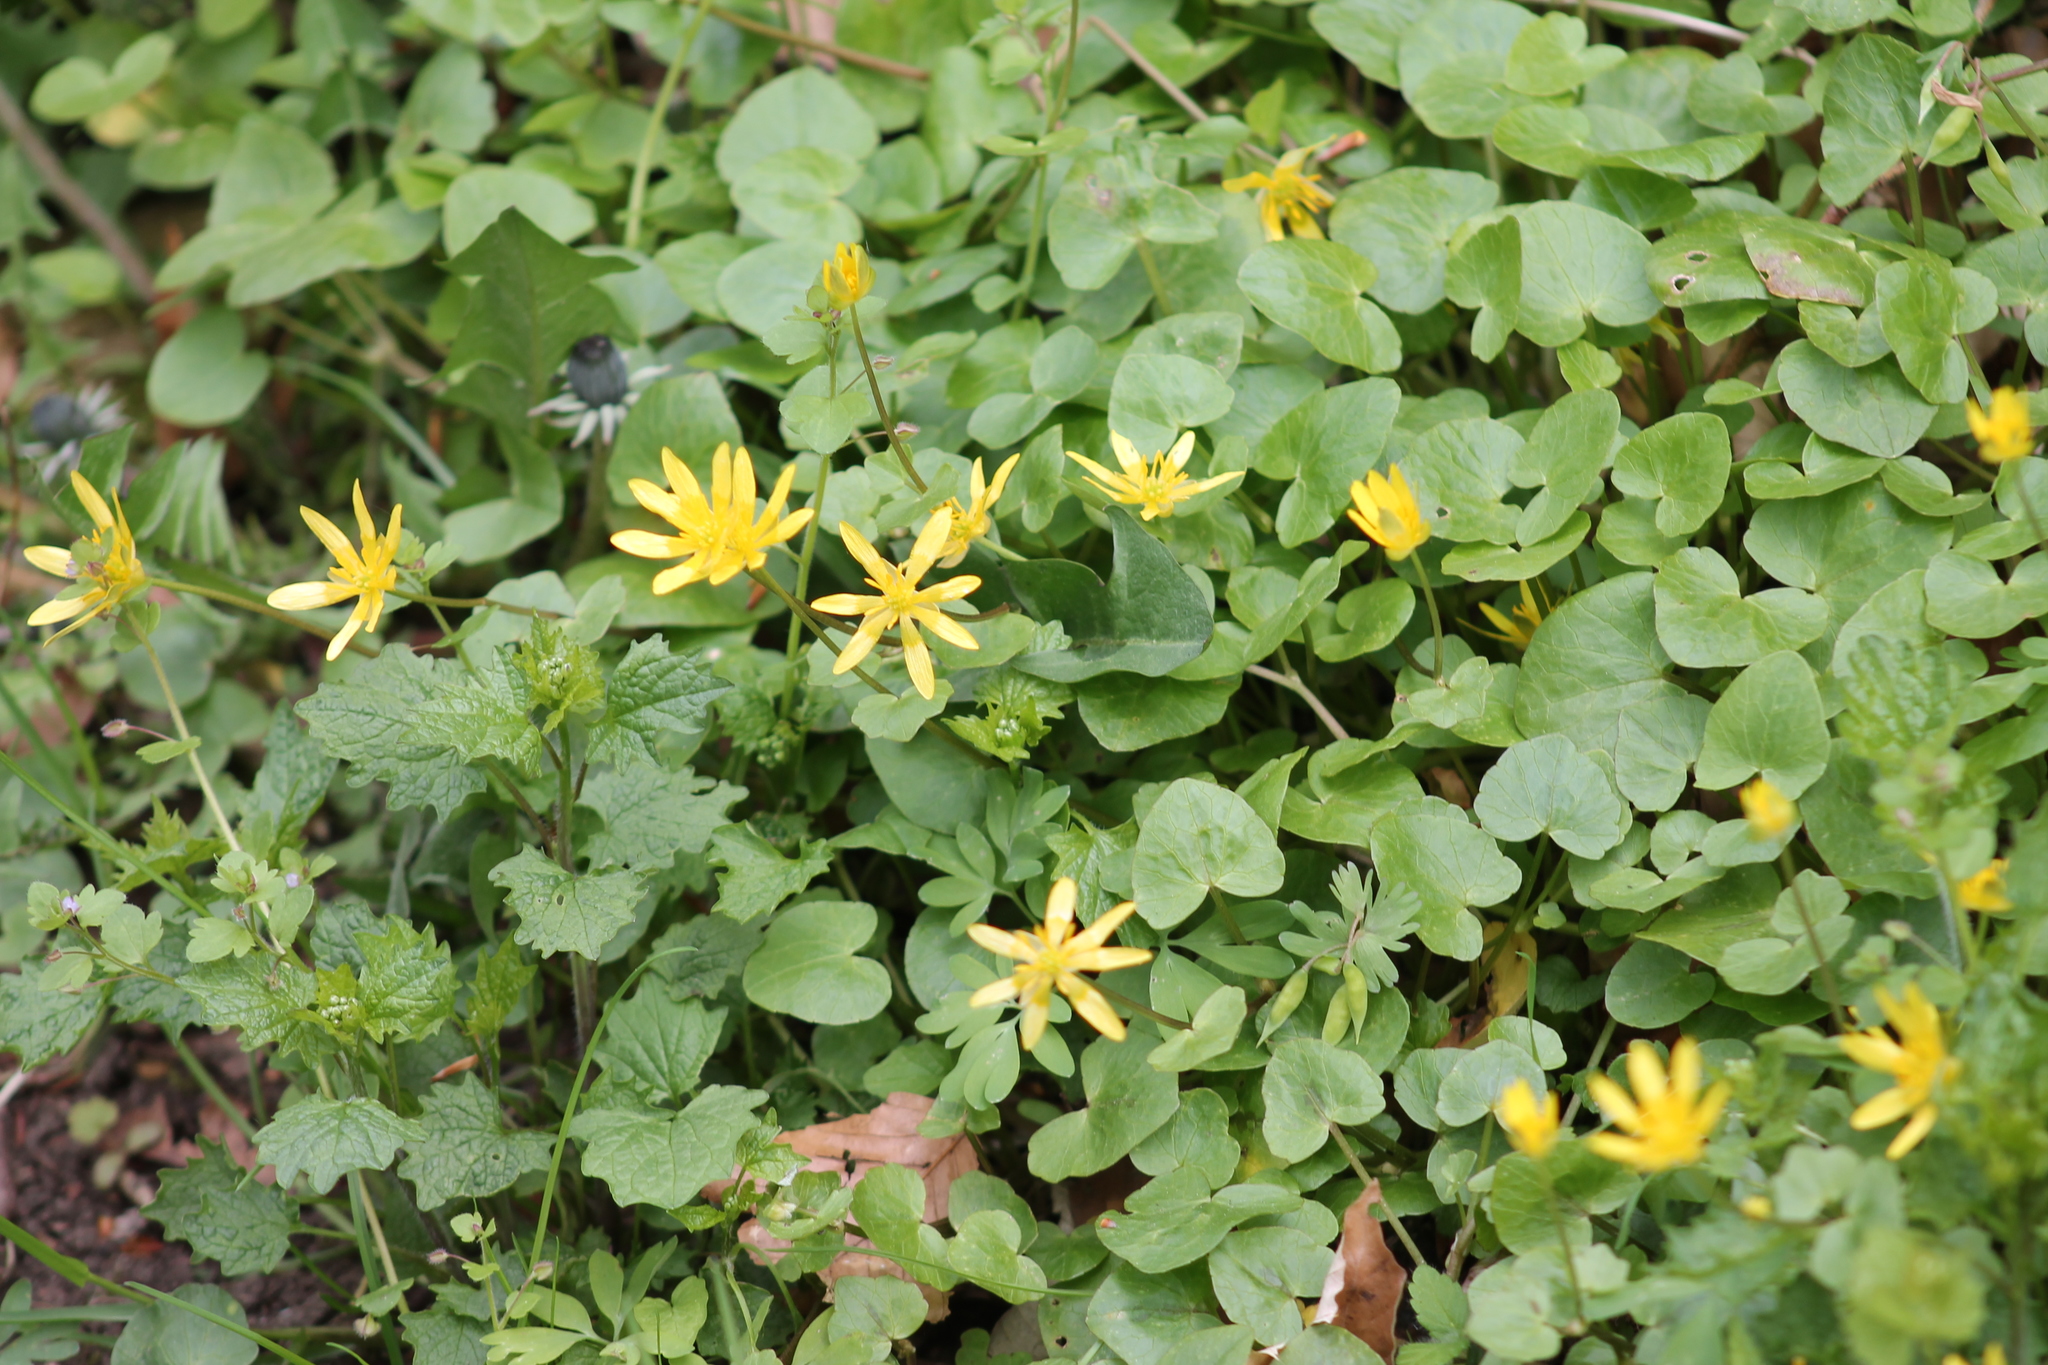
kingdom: Plantae
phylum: Tracheophyta
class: Magnoliopsida
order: Ranunculales
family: Ranunculaceae
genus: Ficaria
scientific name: Ficaria verna
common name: Lesser celandine
